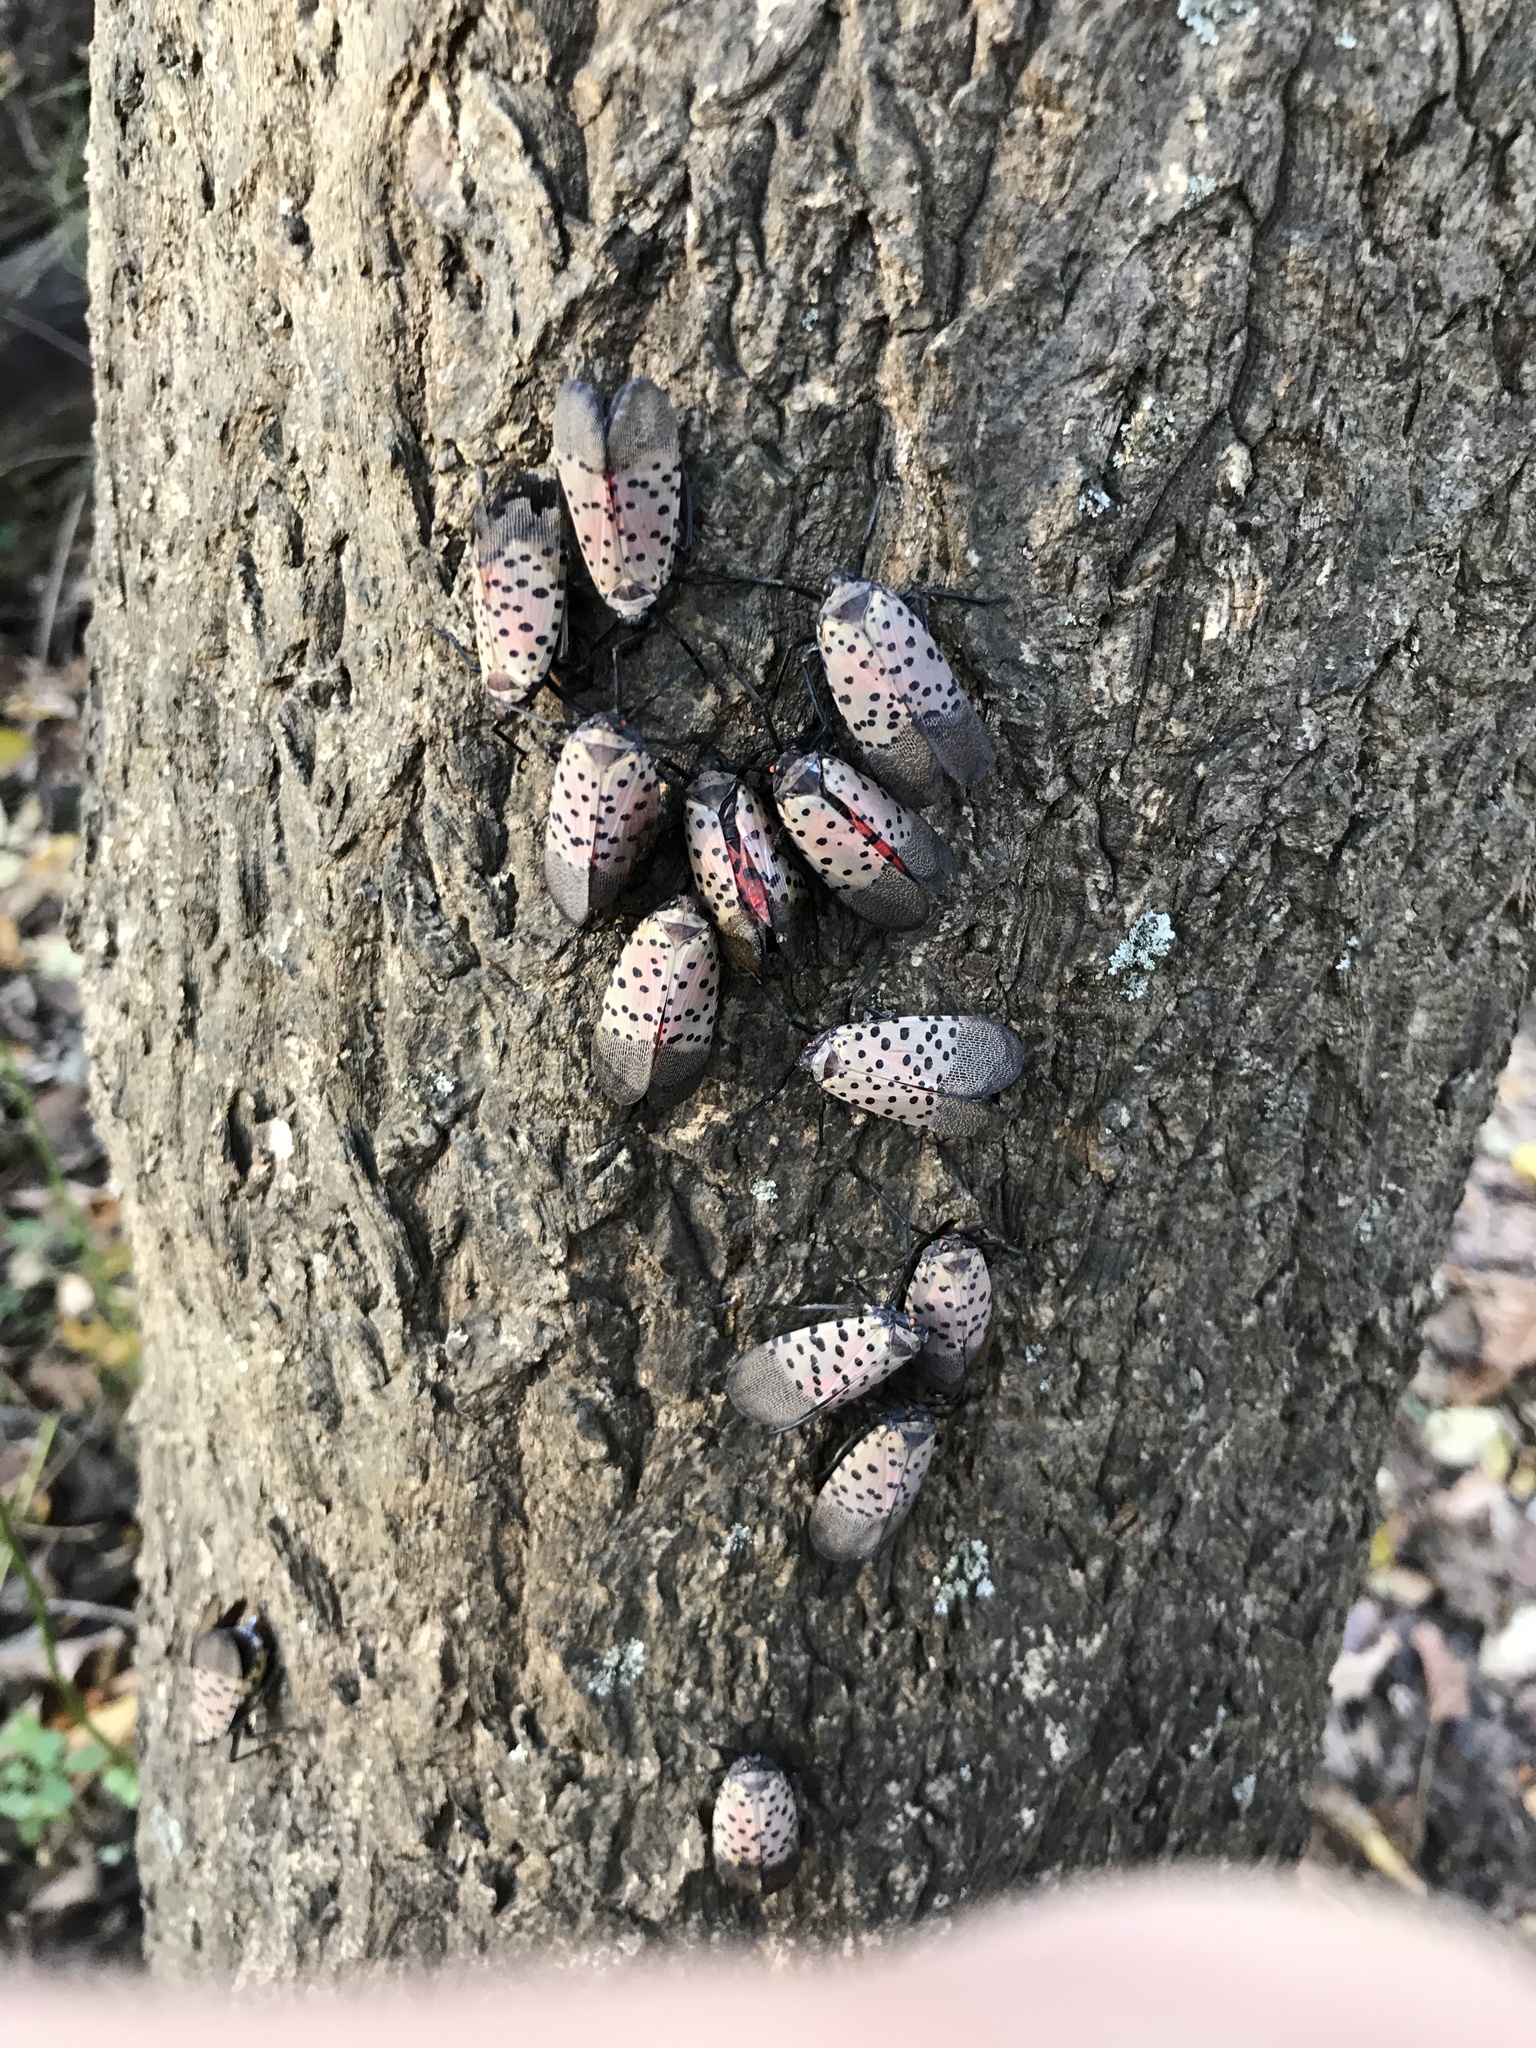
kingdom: Animalia
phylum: Arthropoda
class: Insecta
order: Hemiptera
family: Fulgoridae
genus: Lycorma
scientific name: Lycorma delicatula
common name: Spotted lanternfly
